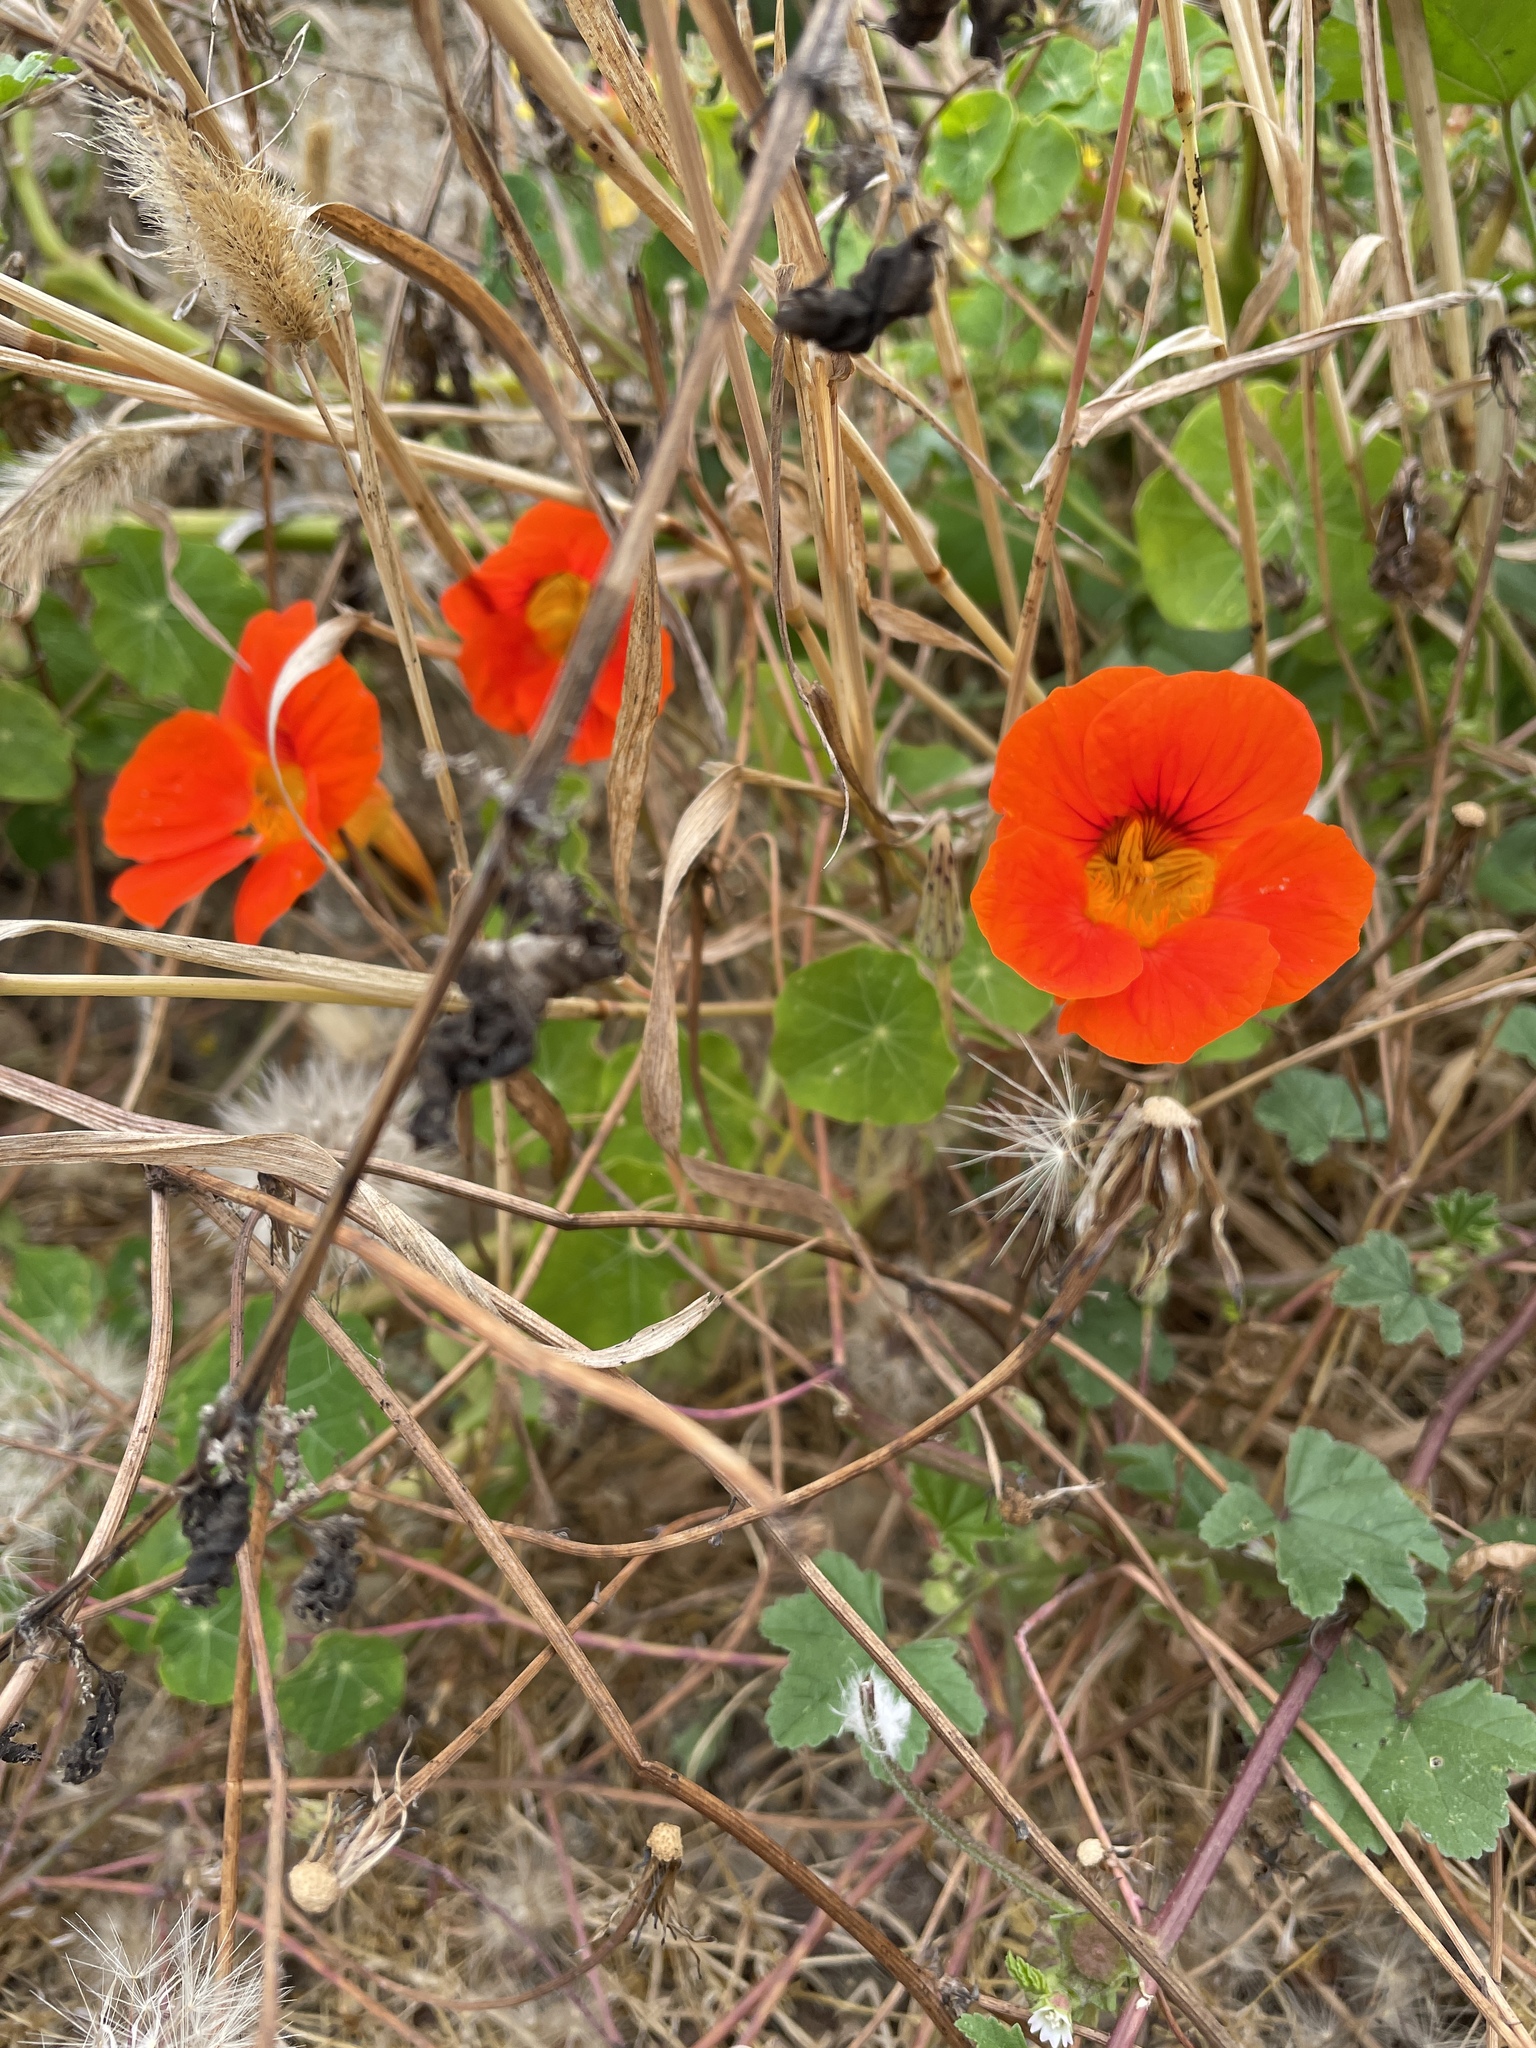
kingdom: Plantae
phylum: Tracheophyta
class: Magnoliopsida
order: Brassicales
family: Tropaeolaceae
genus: Tropaeolum
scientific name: Tropaeolum majus
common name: Nasturtium
